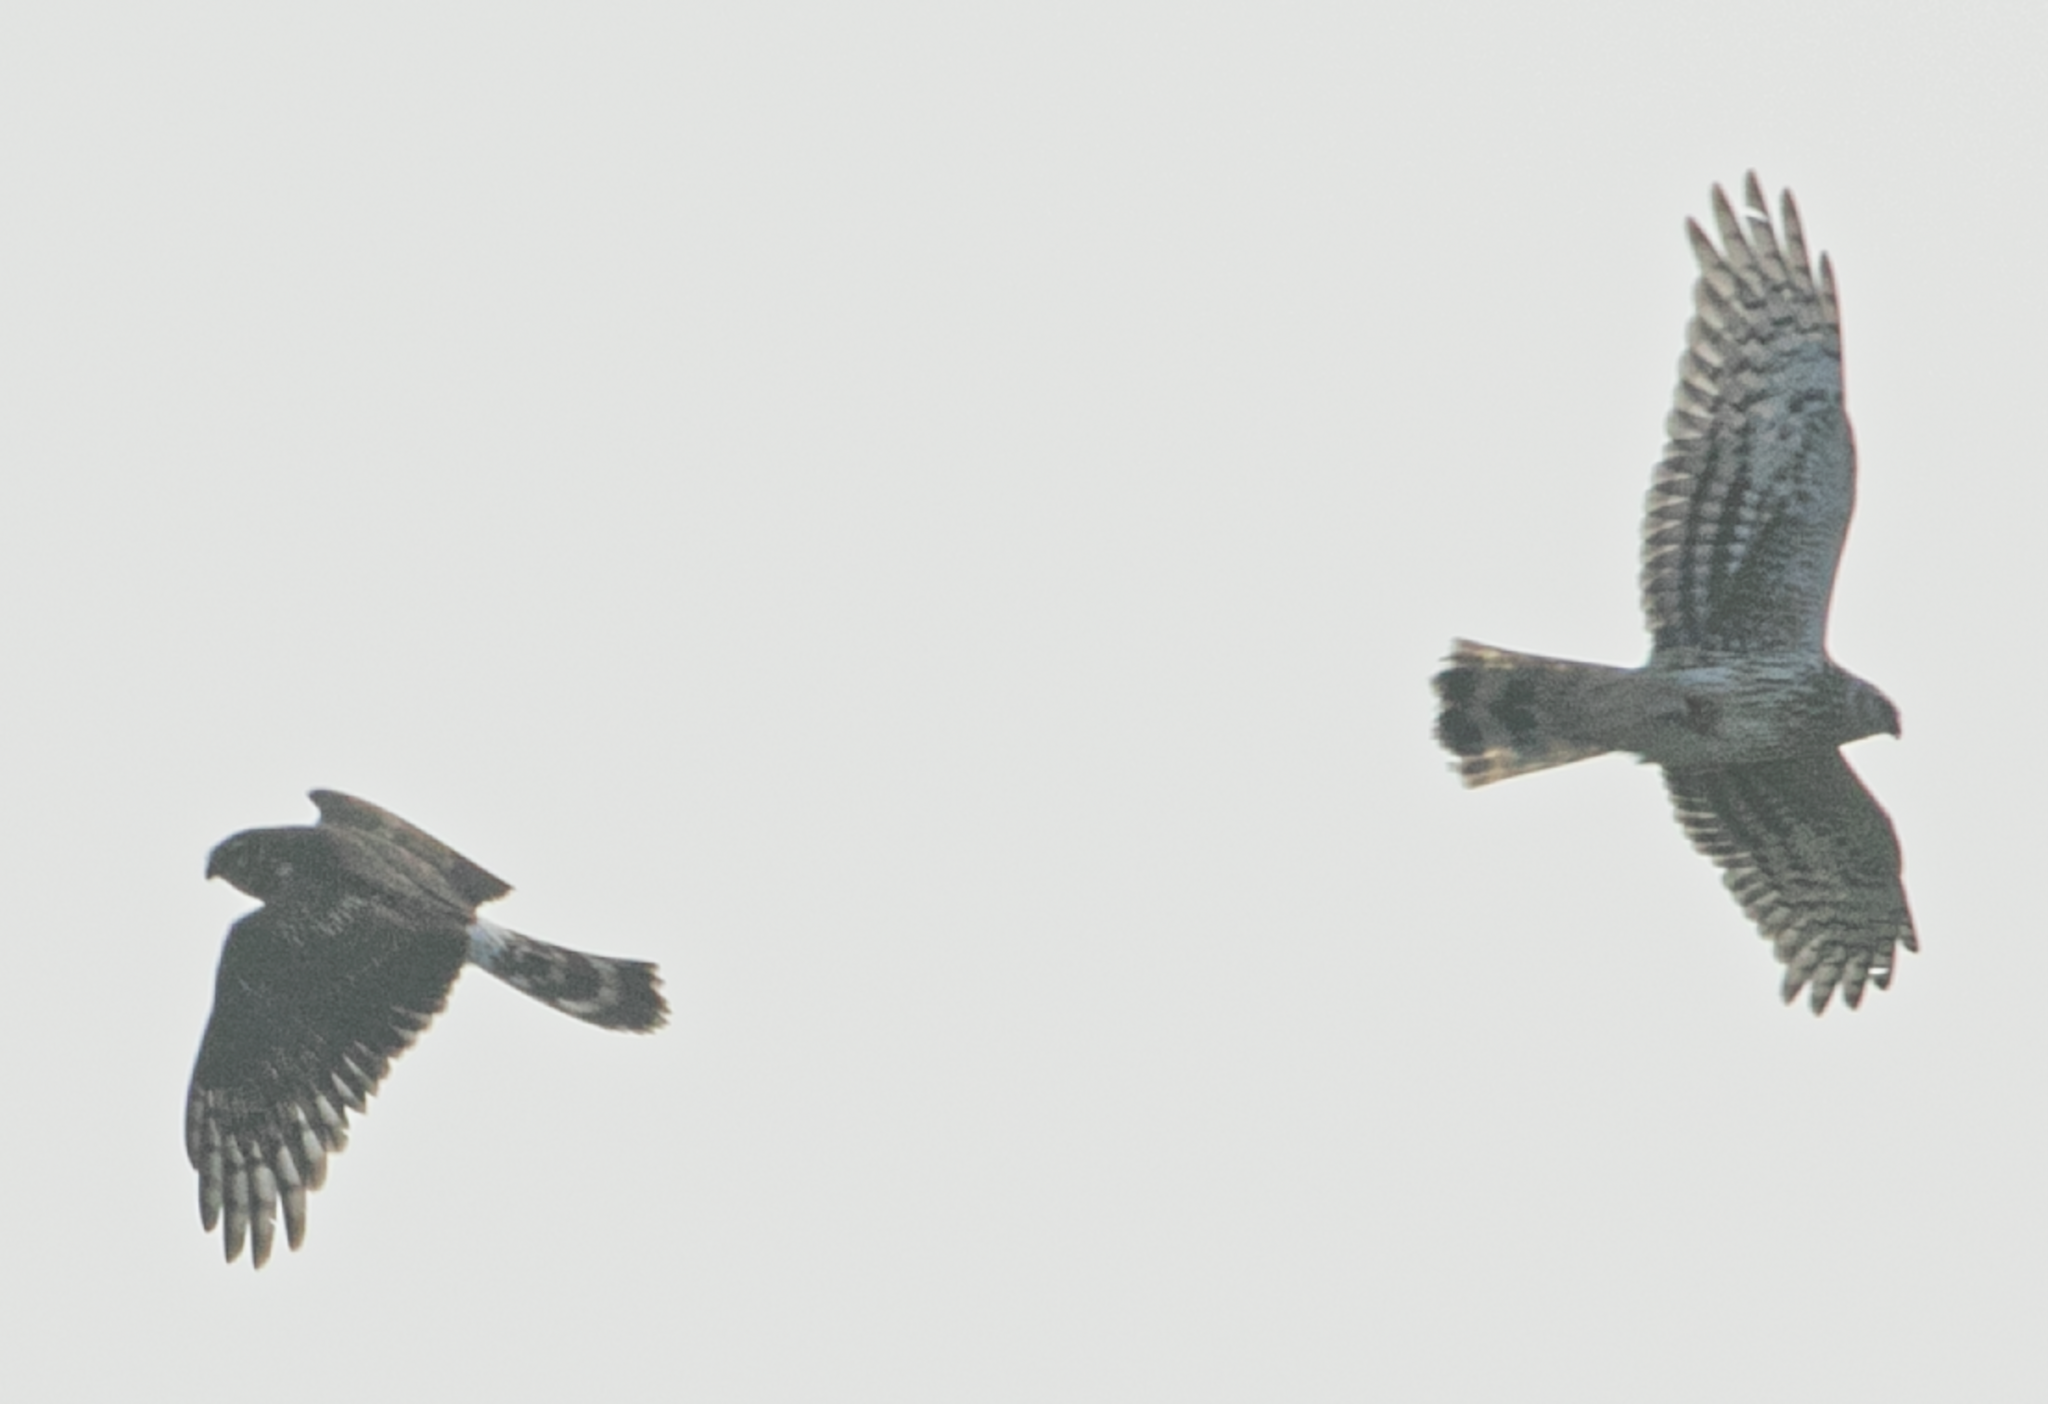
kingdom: Animalia
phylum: Chordata
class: Aves
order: Accipitriformes
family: Accipitridae
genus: Circus
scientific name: Circus cyaneus
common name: Hen harrier
